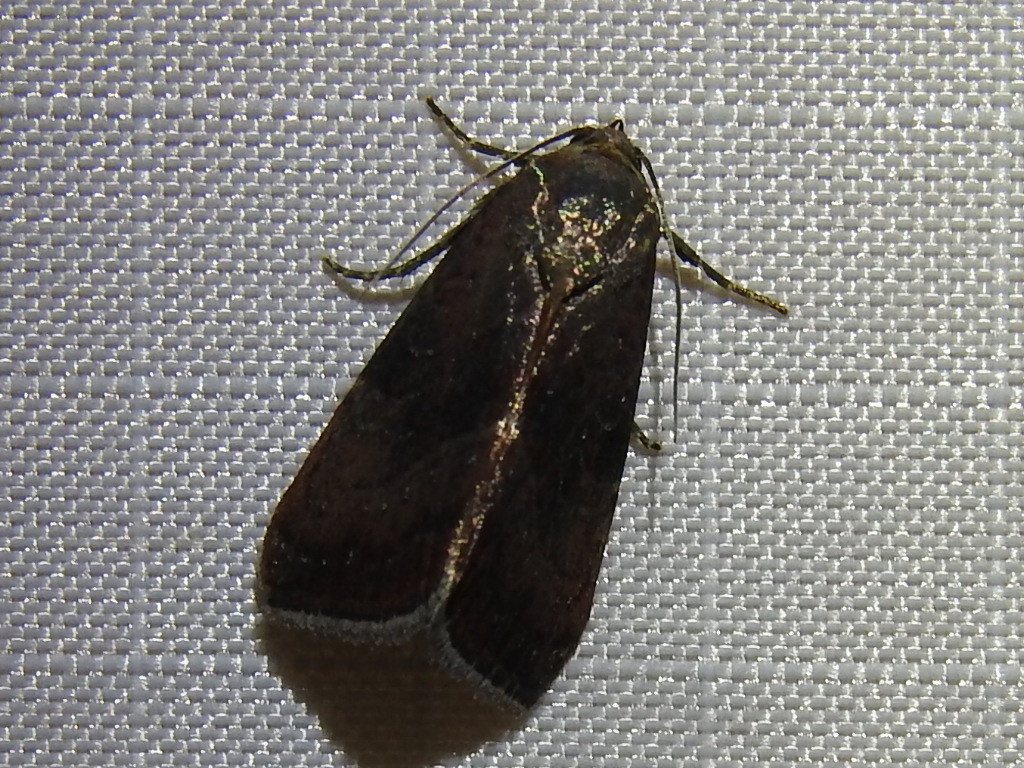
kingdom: Animalia
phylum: Arthropoda
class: Insecta
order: Lepidoptera
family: Noctuidae
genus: Galgula
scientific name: Galgula partita
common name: Wedgeling
